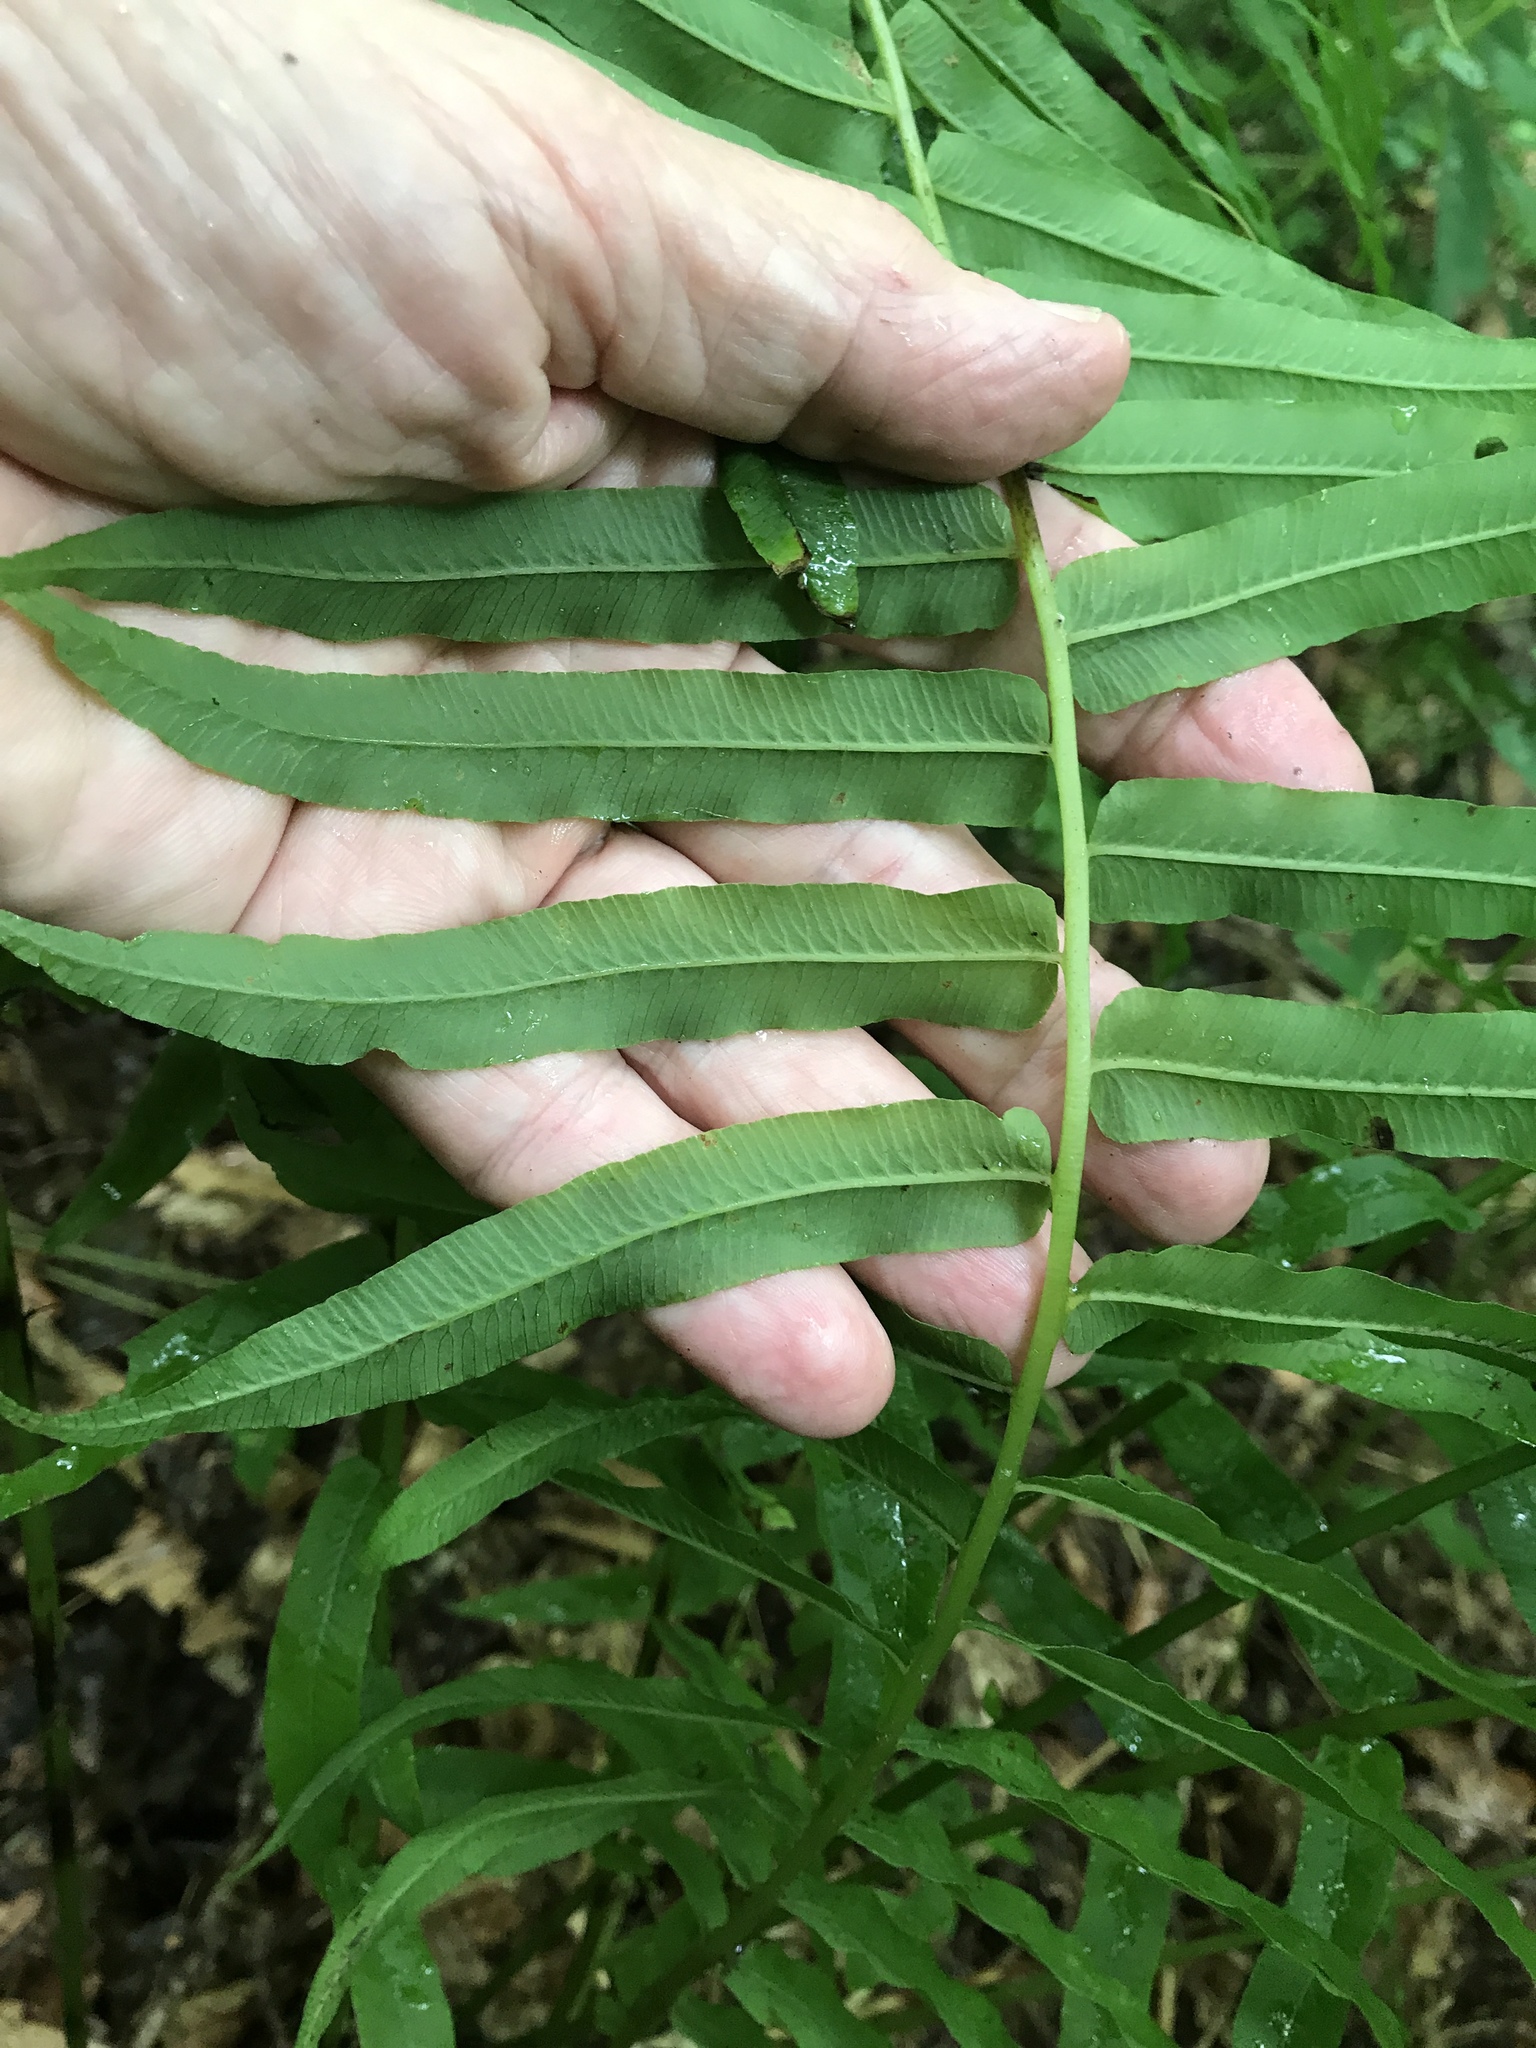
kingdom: Plantae
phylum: Tracheophyta
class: Polypodiopsida
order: Polypodiales
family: Diplaziopsidaceae
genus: Homalosorus
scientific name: Homalosorus pycnocarpos
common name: Glade fern
